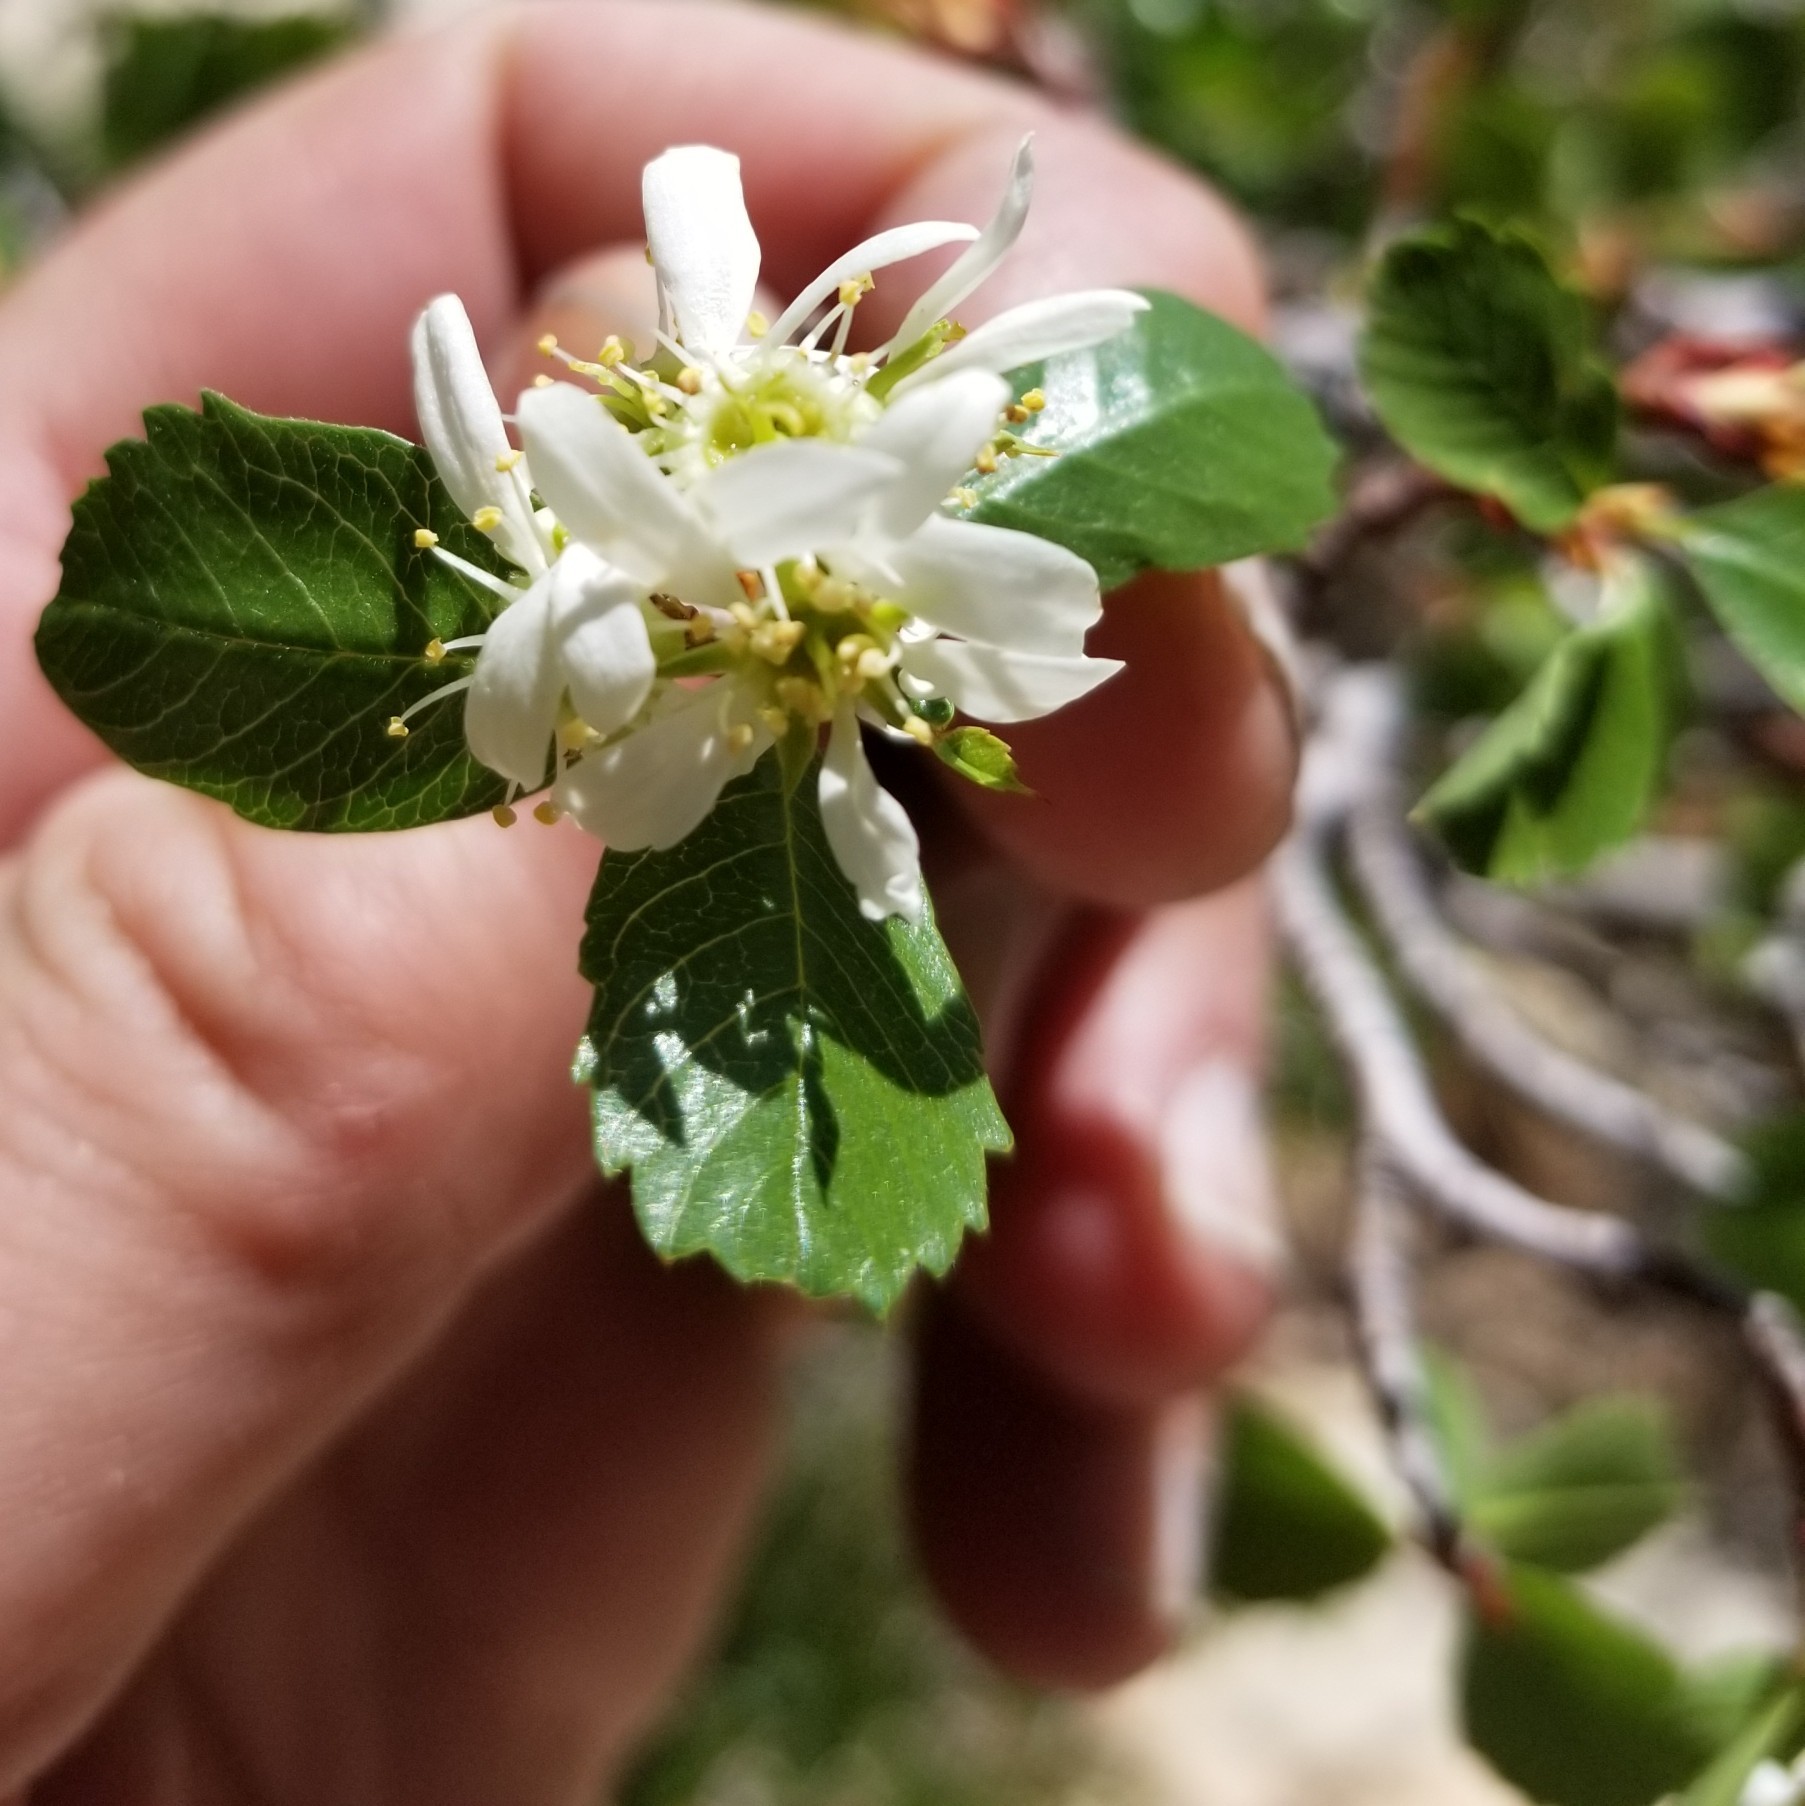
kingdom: Plantae
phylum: Tracheophyta
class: Magnoliopsida
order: Rosales
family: Rosaceae
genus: Amelanchier
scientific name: Amelanchier utahensis
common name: Utah serviceberry
